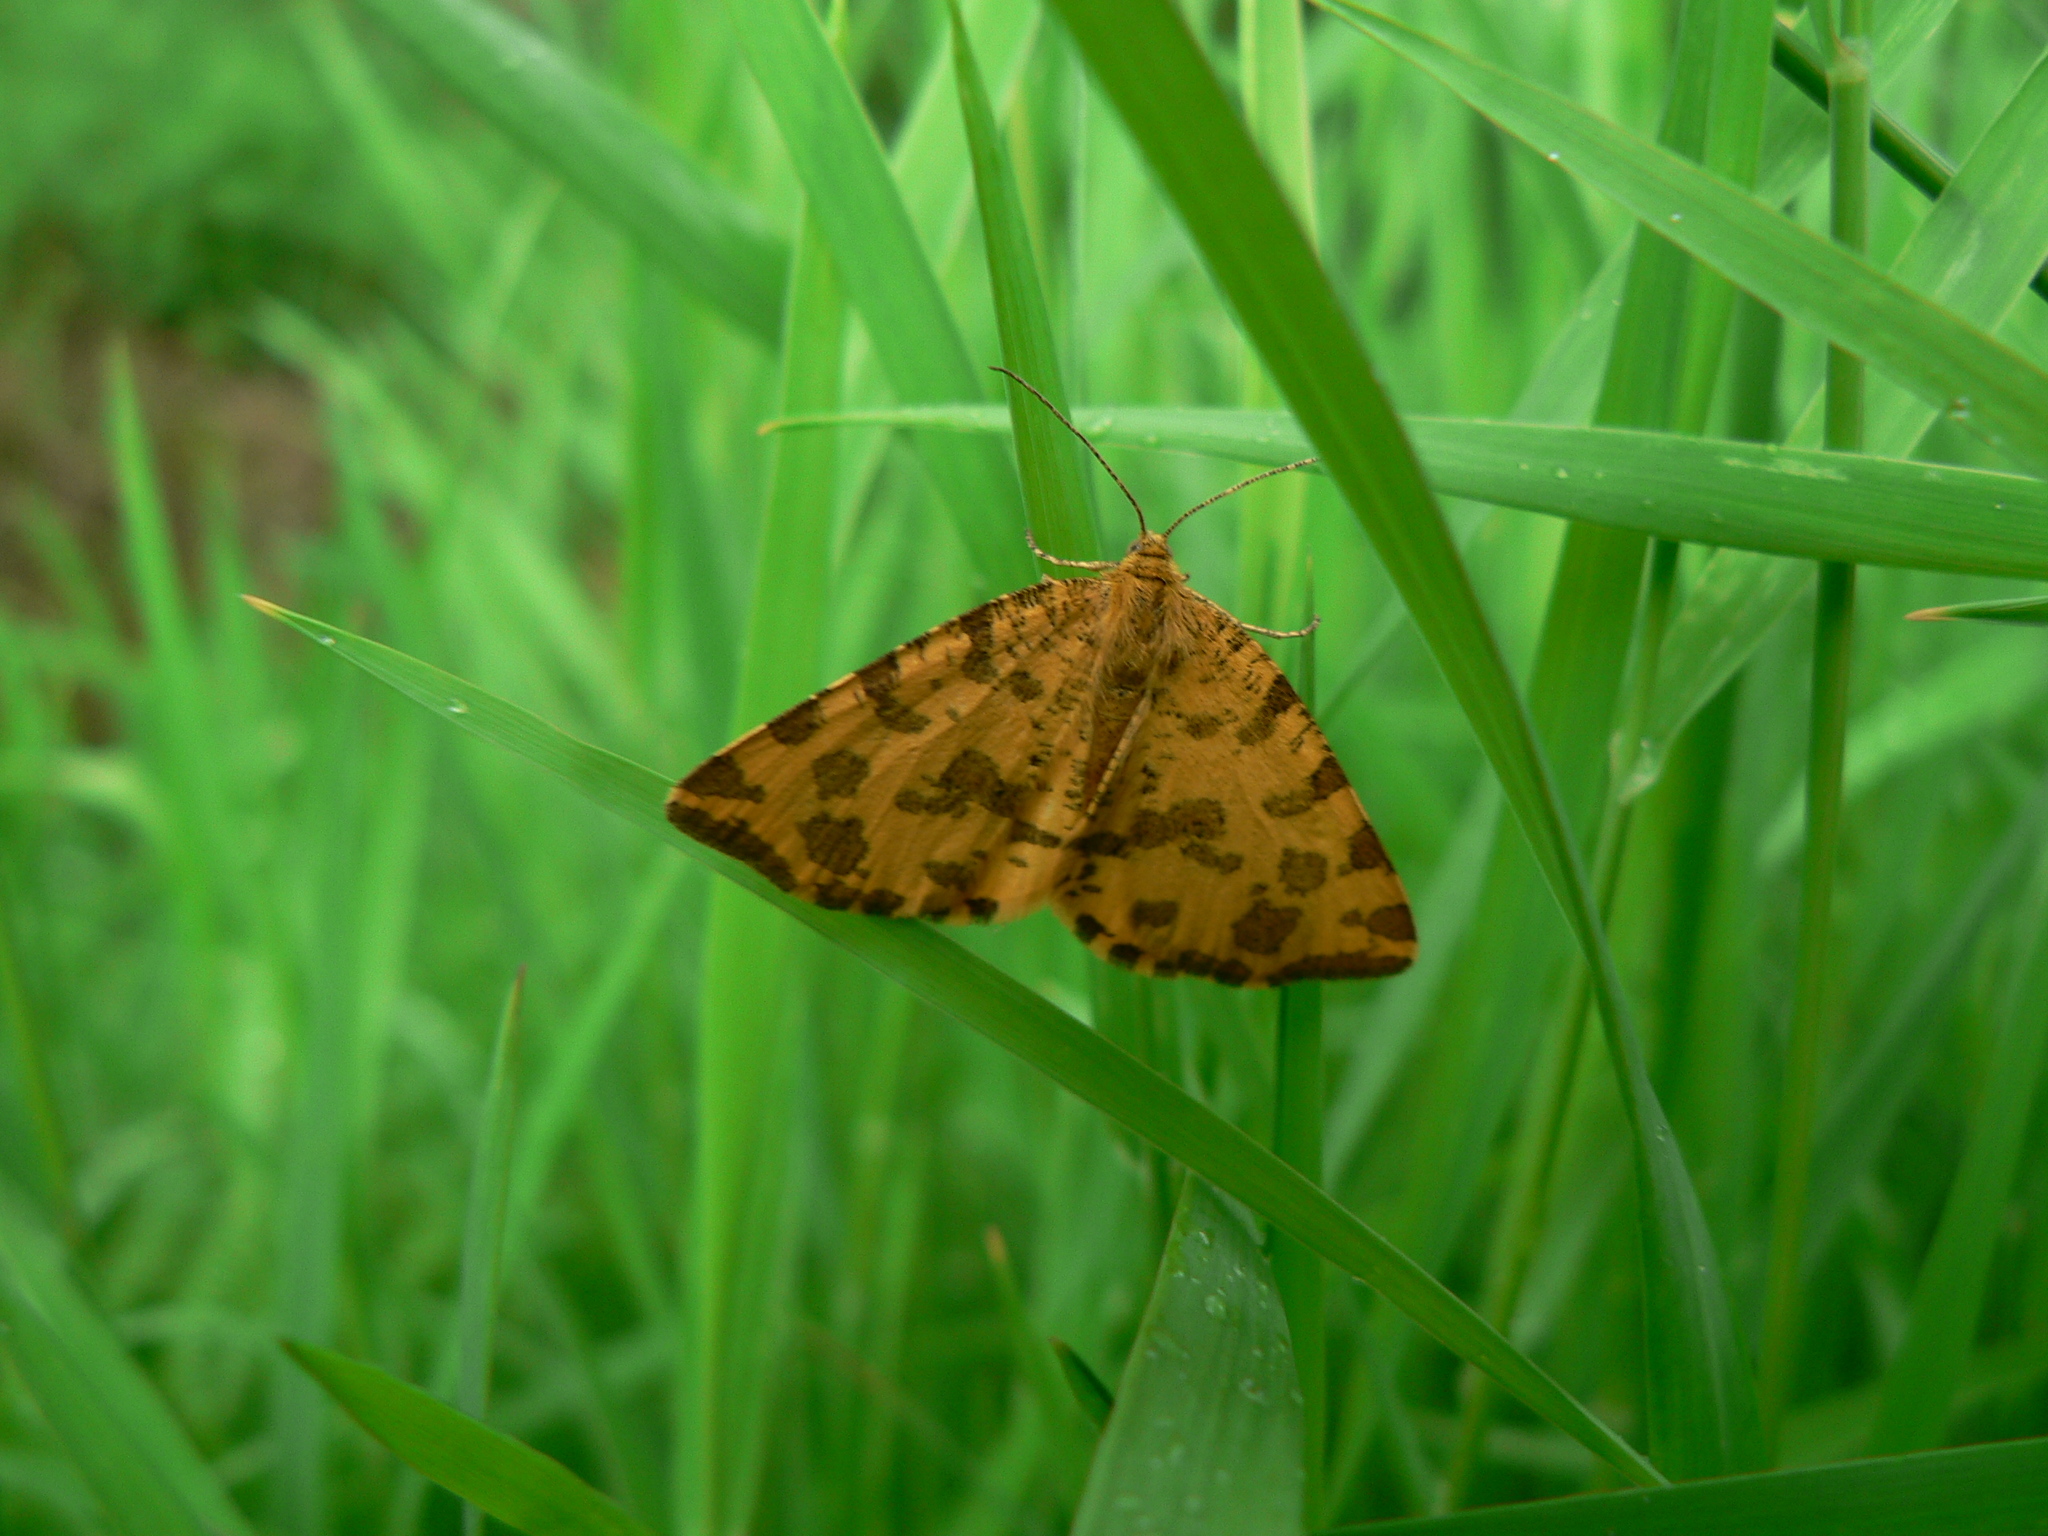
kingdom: Animalia
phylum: Arthropoda
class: Insecta
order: Lepidoptera
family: Geometridae
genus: Pseudopanthera
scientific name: Pseudopanthera macularia
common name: Speckled yellow
